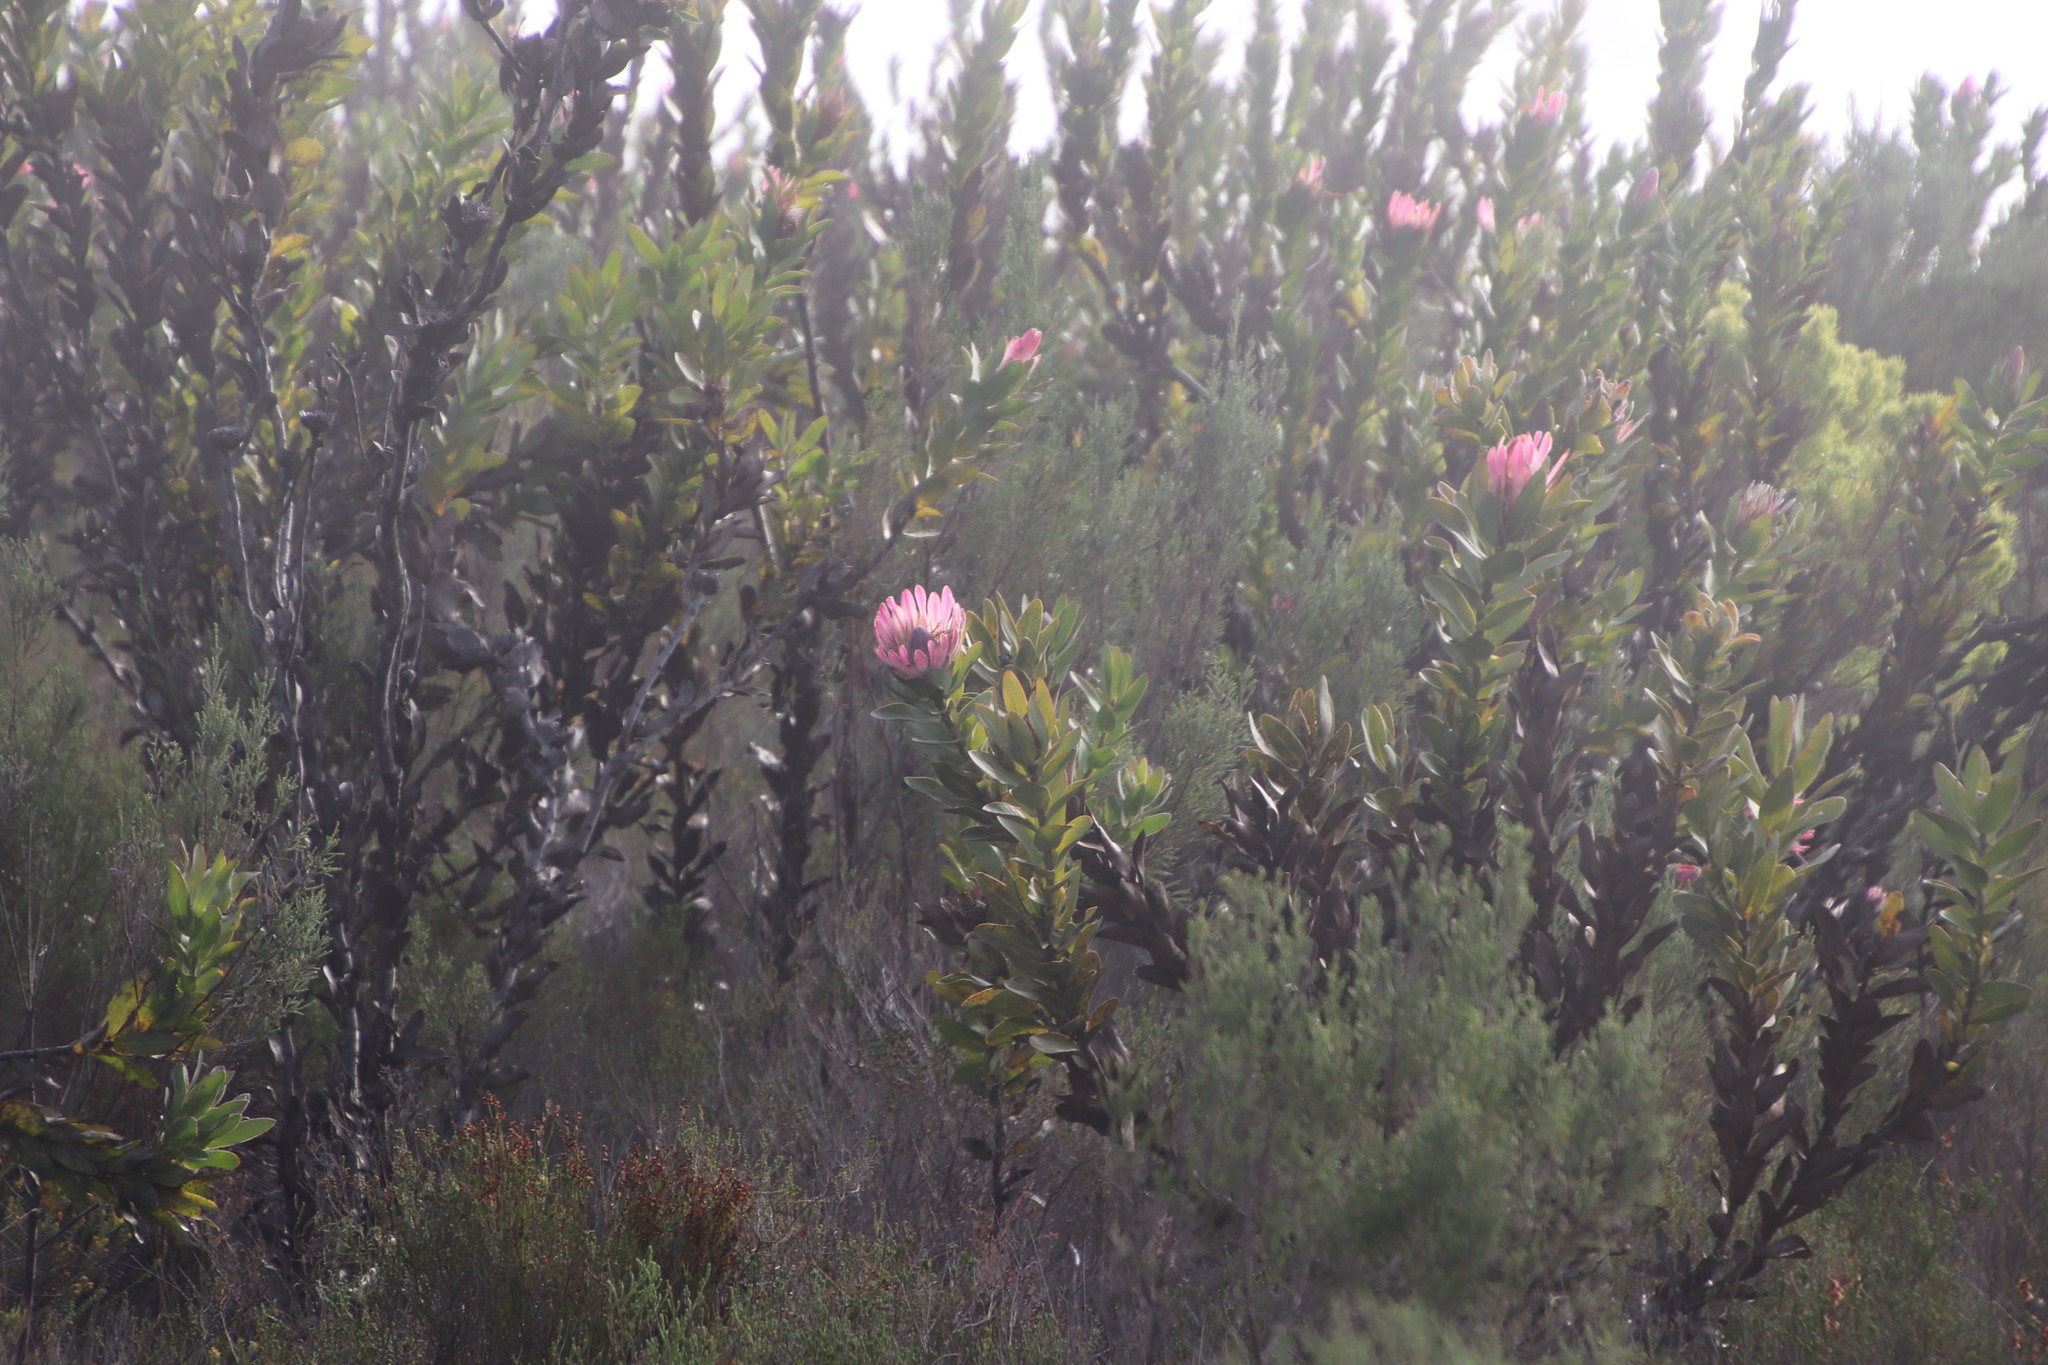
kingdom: Plantae
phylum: Tracheophyta
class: Magnoliopsida
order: Proteales
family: Proteaceae
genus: Protea
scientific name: Protea compacta
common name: Bot river protea
